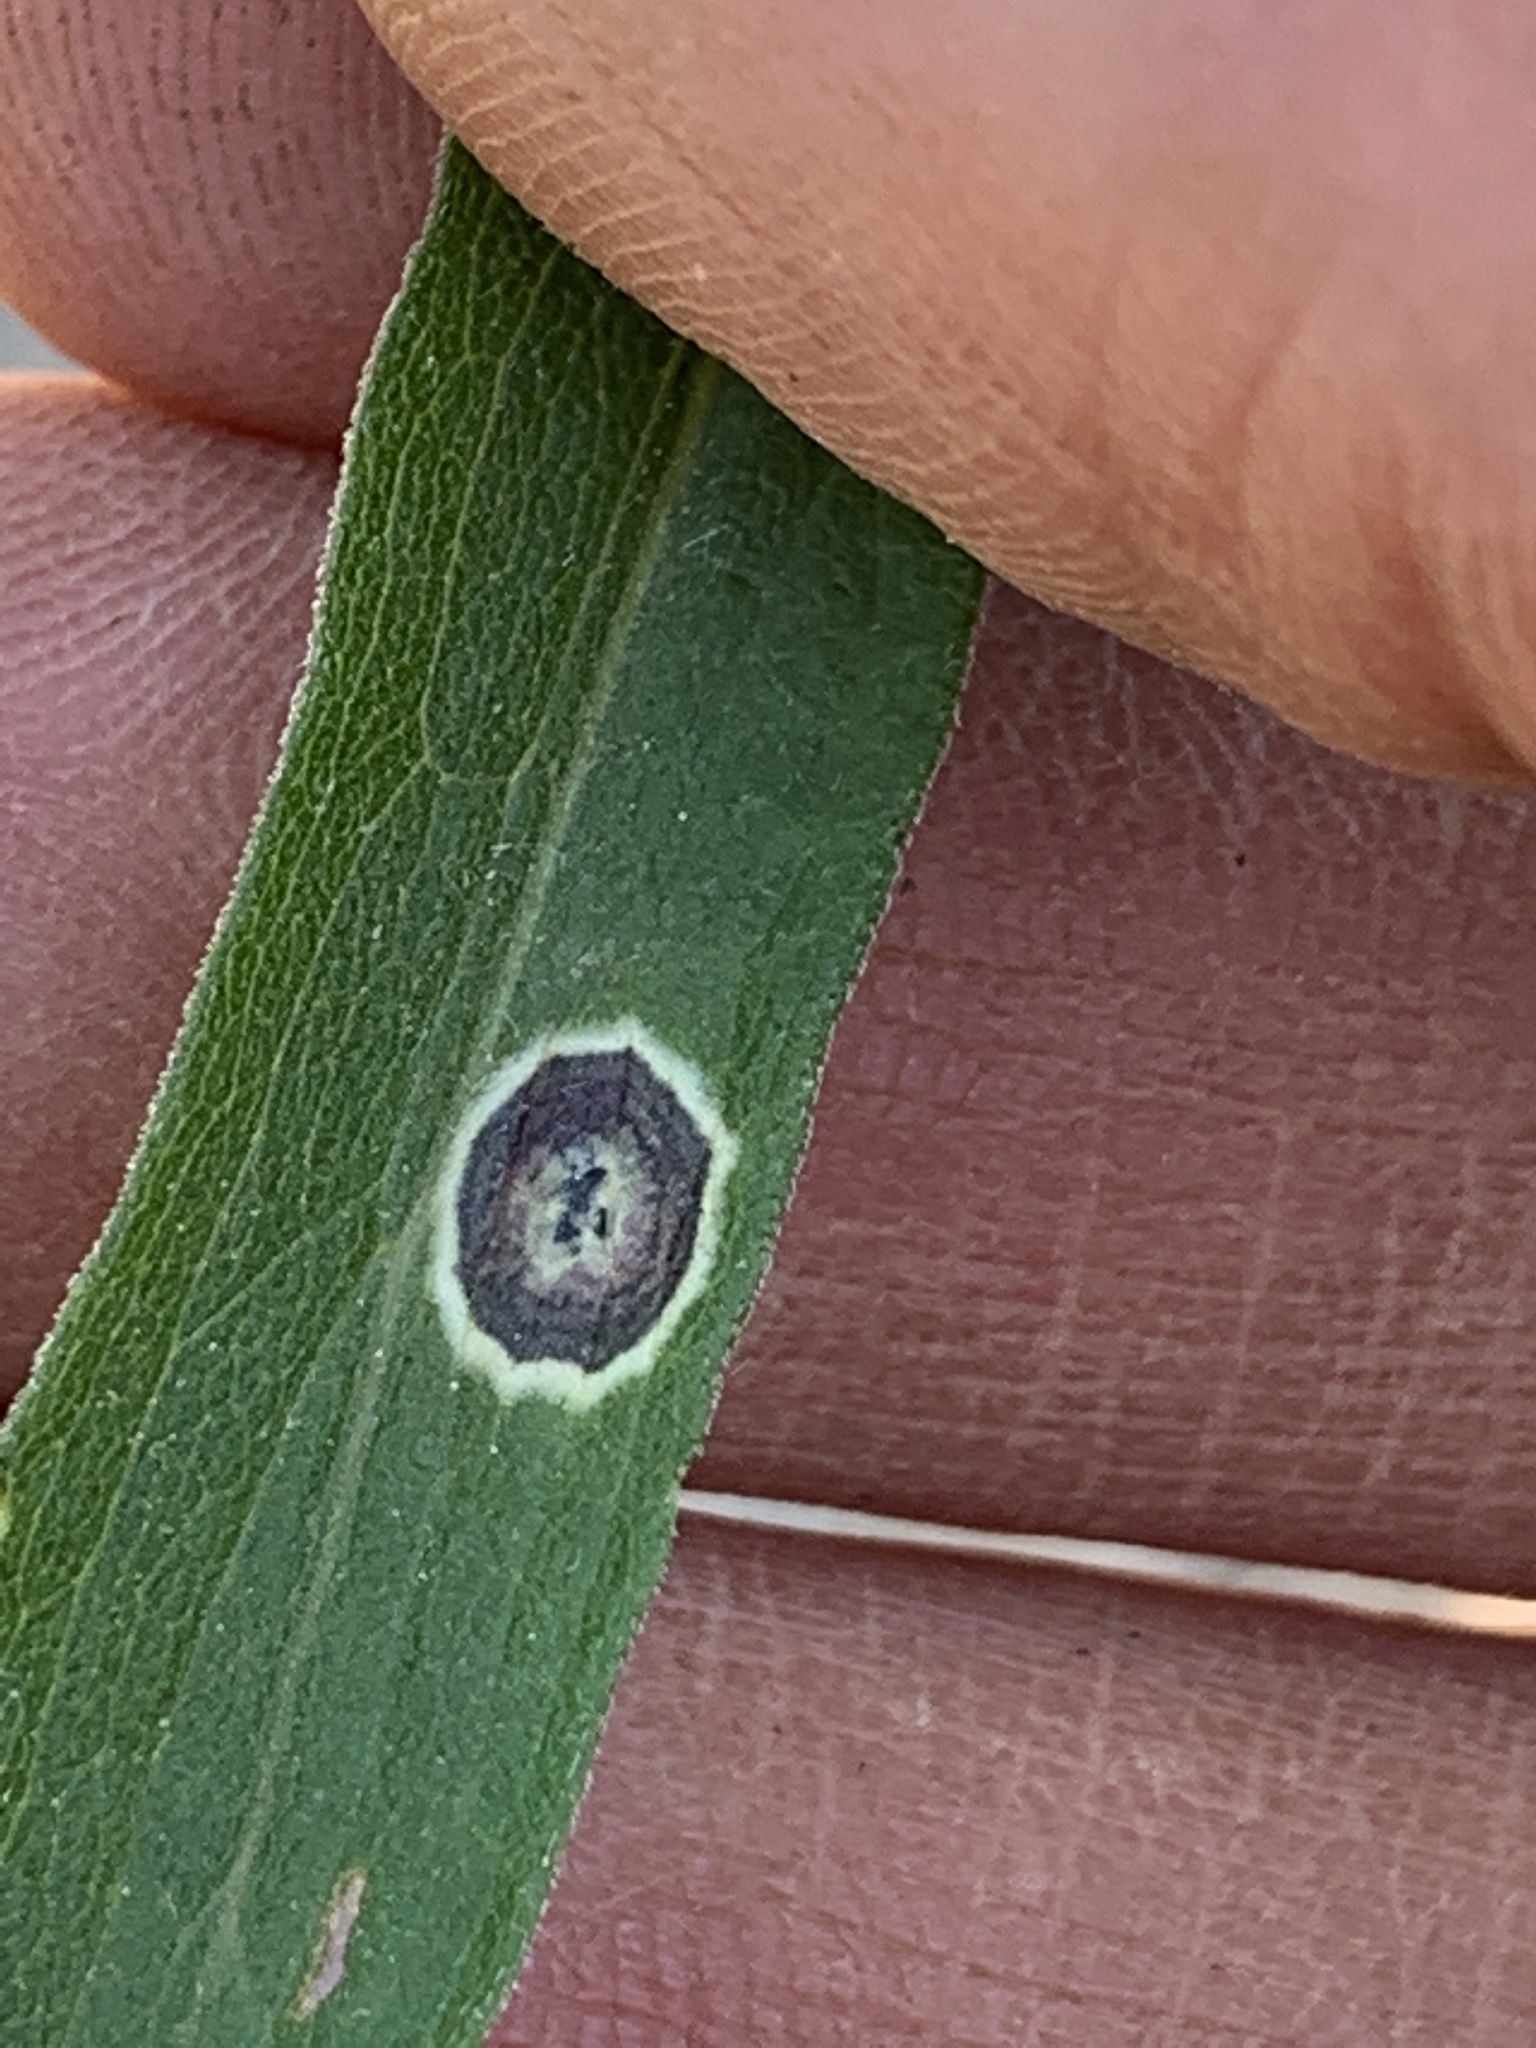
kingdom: Animalia
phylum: Arthropoda
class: Insecta
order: Diptera
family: Cecidomyiidae
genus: Asteromyia
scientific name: Asteromyia carbonifera
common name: Carbonifera goldenrod gall midge
